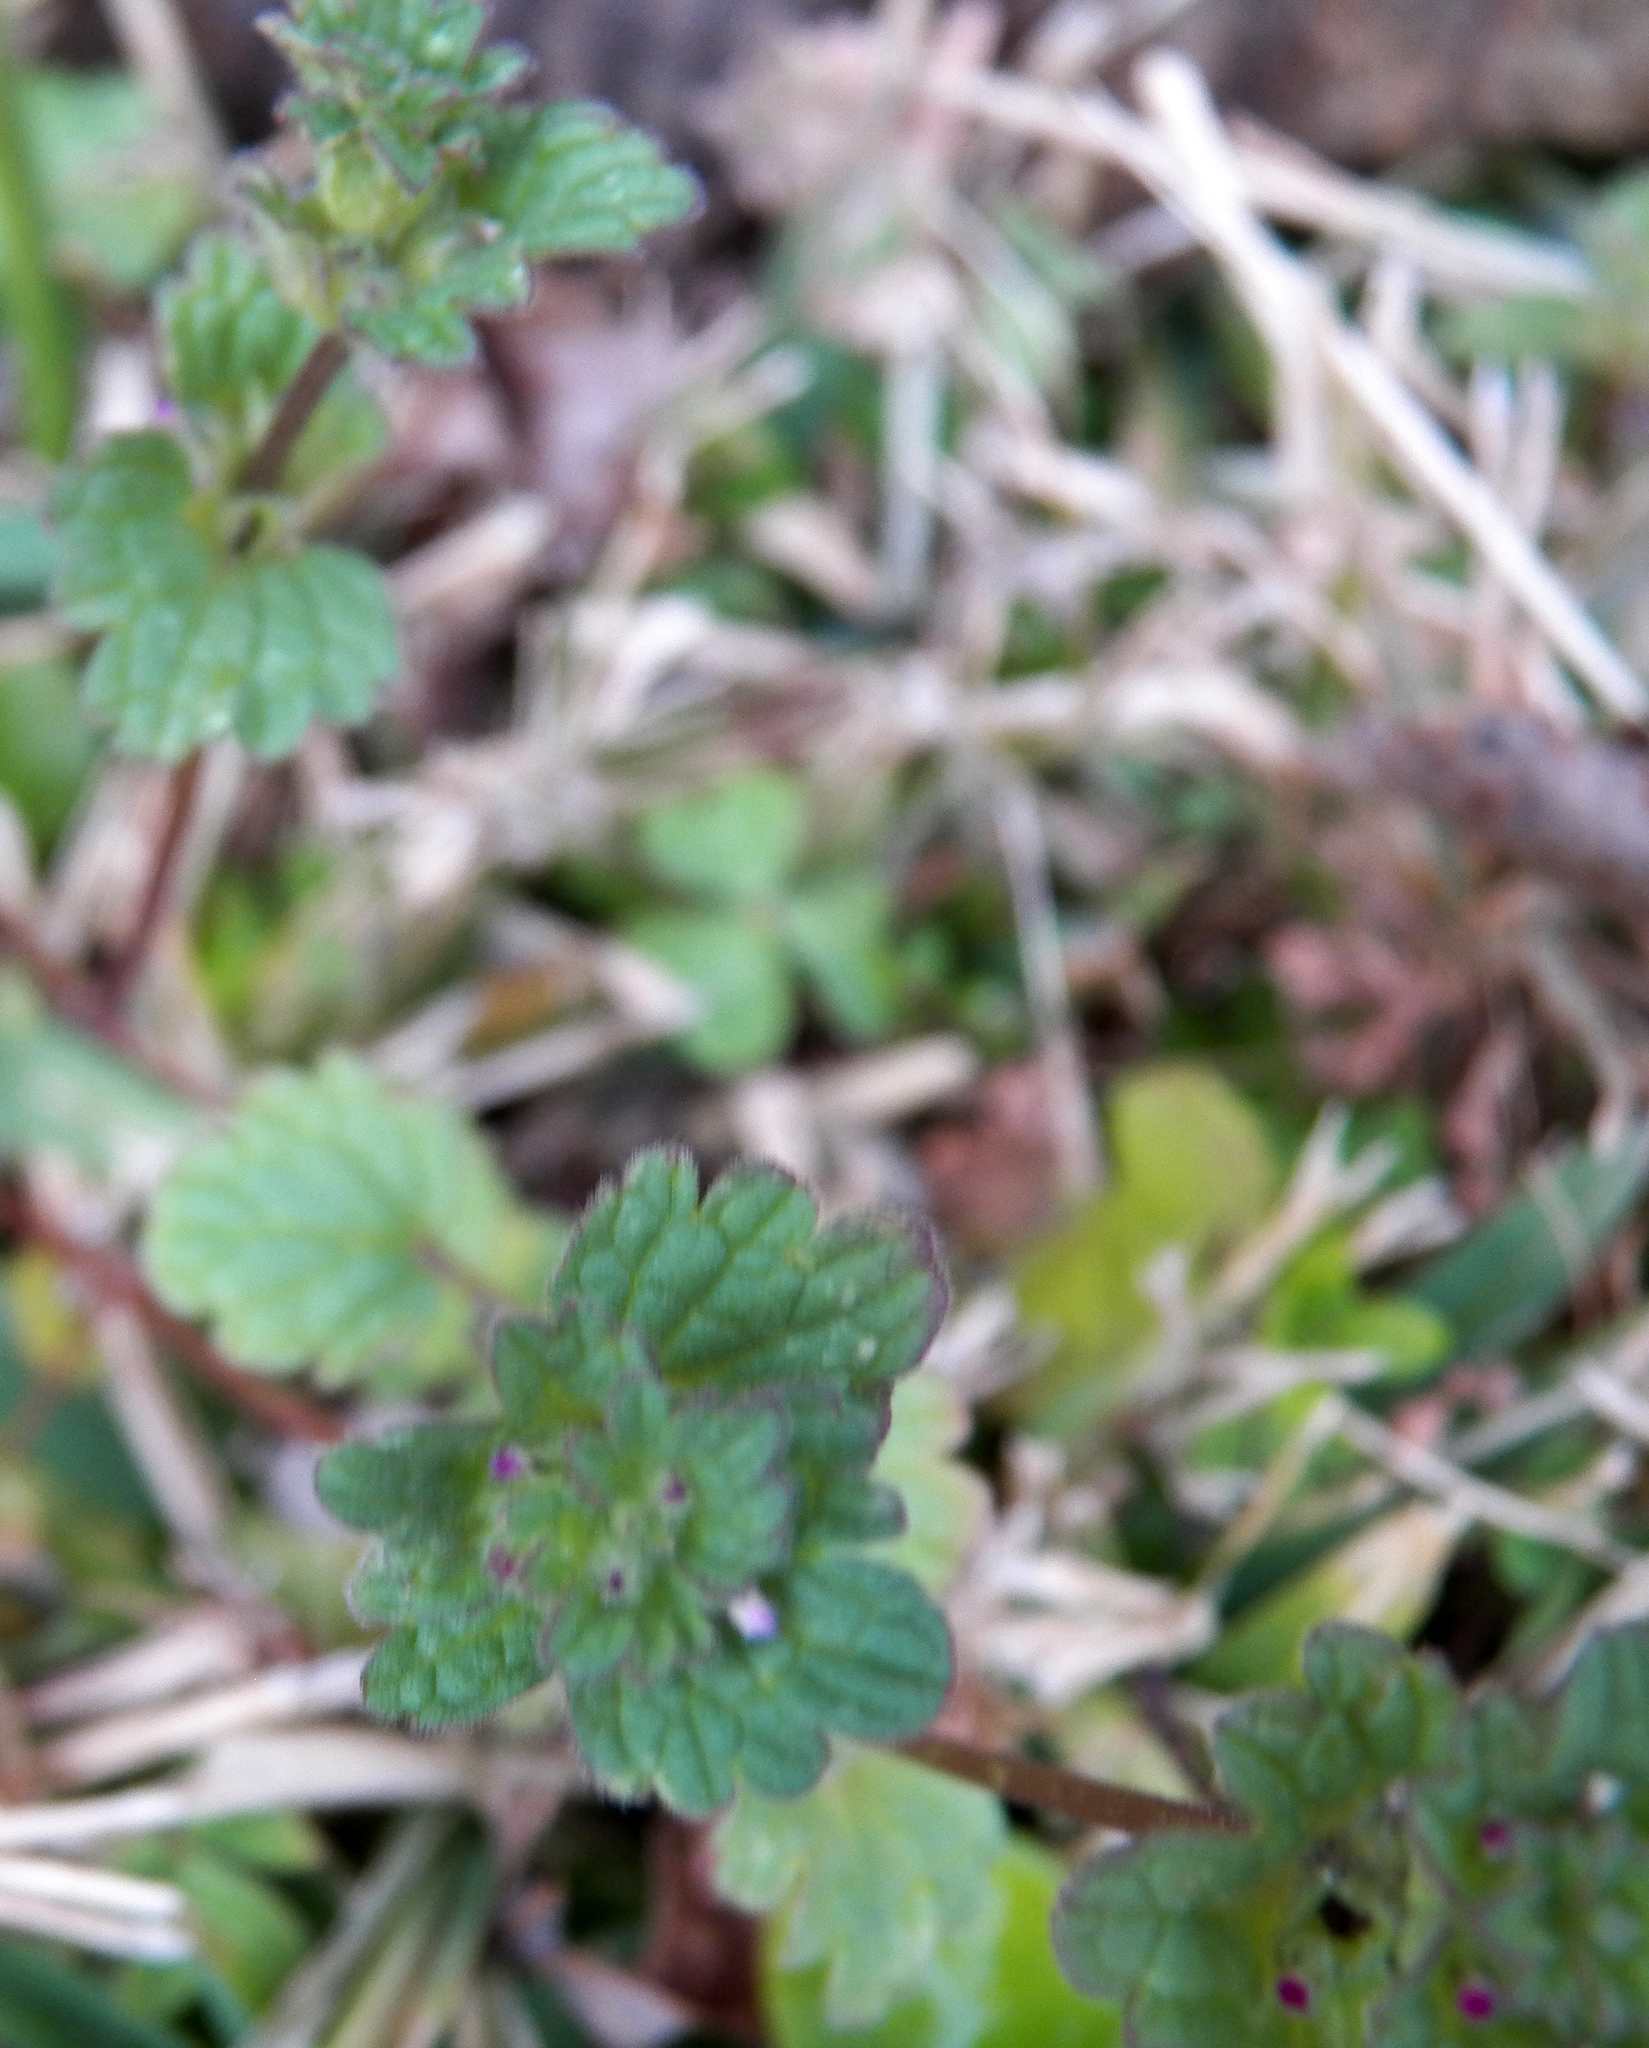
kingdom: Plantae
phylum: Tracheophyta
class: Magnoliopsida
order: Lamiales
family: Lamiaceae
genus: Lamium
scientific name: Lamium amplexicaule
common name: Henbit dead-nettle
